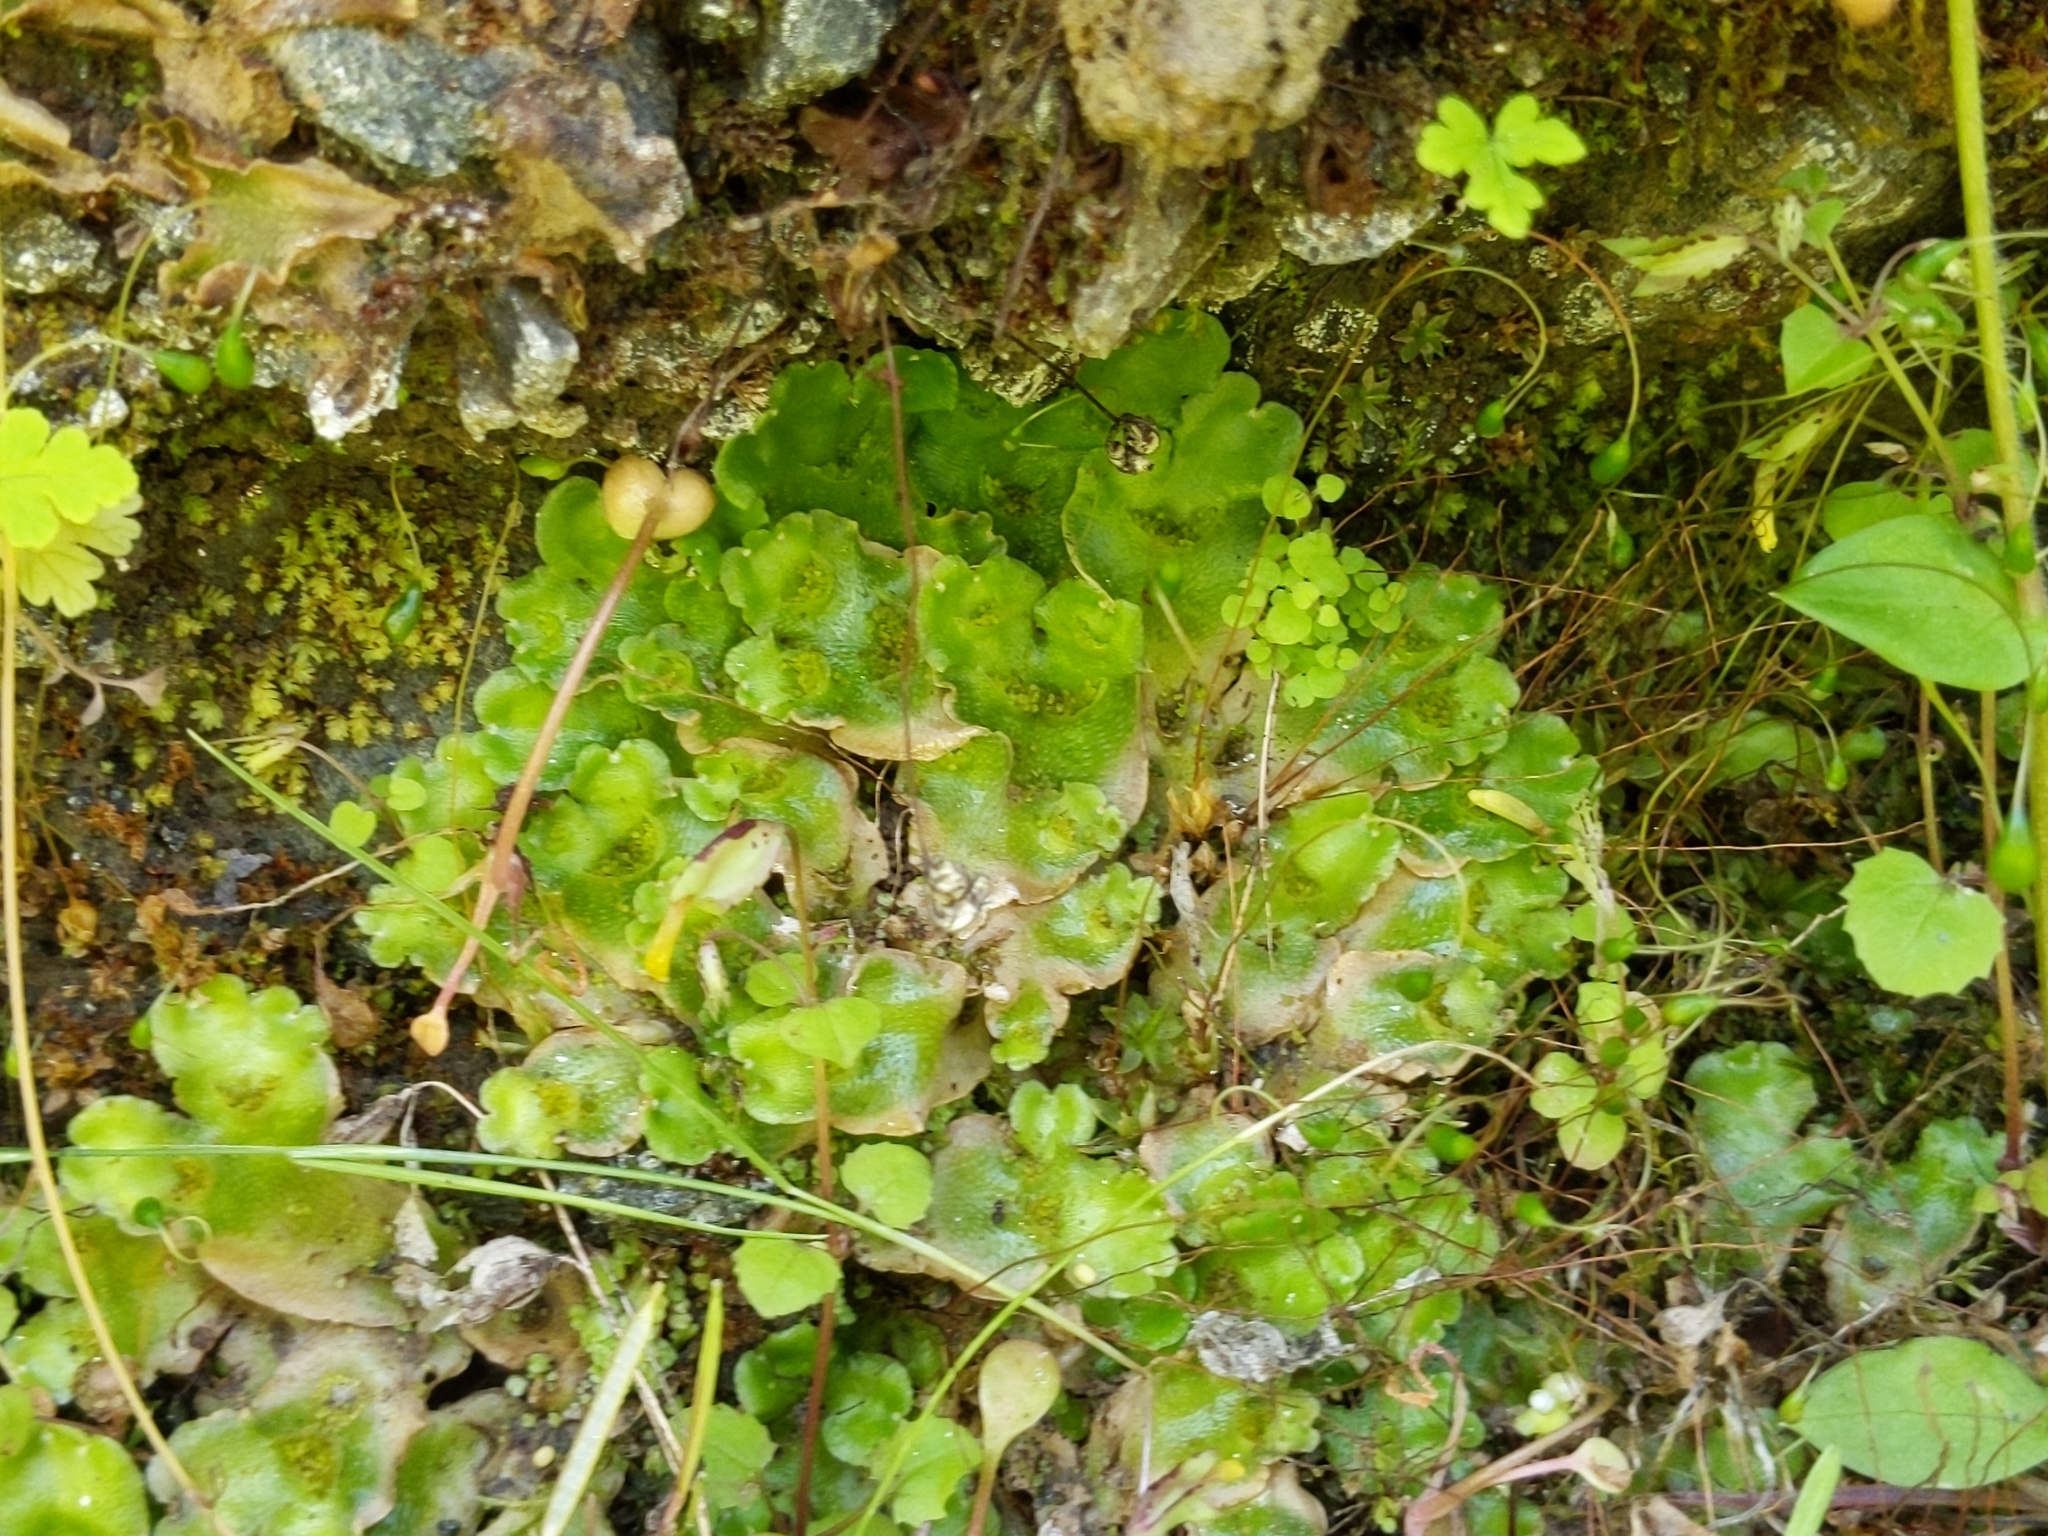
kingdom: Plantae
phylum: Marchantiophyta
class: Marchantiopsida
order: Lunulariales
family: Lunulariaceae
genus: Lunularia
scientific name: Lunularia cruciata
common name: Crescent-cup liverwort
